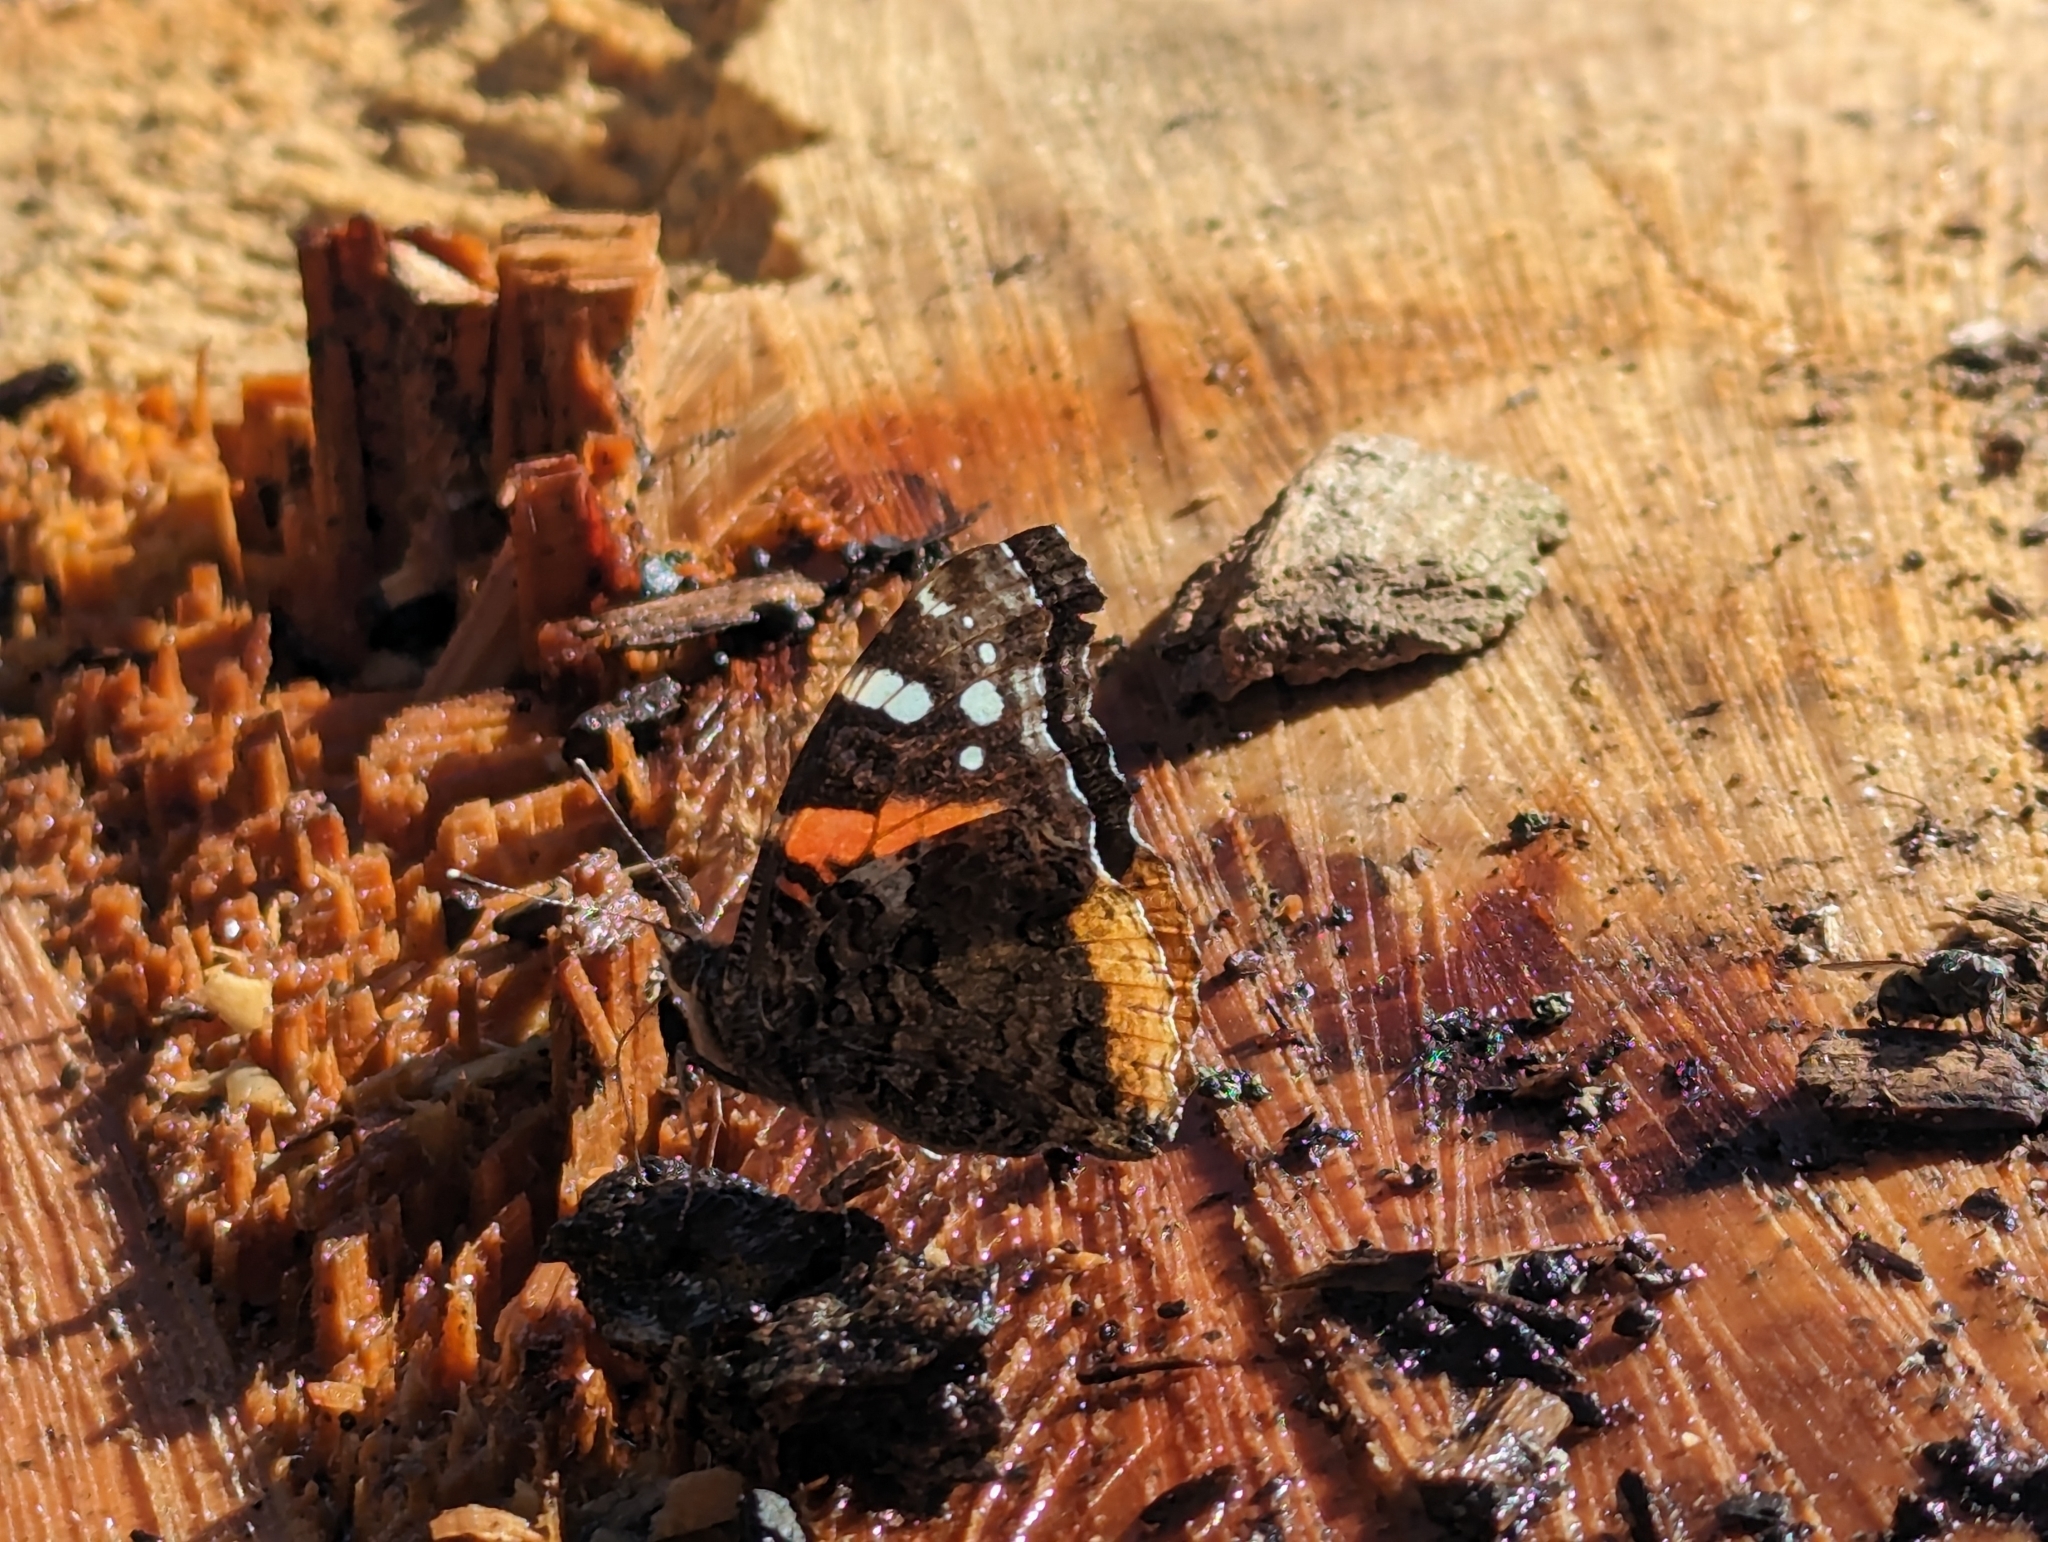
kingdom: Animalia
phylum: Arthropoda
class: Insecta
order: Lepidoptera
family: Nymphalidae
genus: Vanessa
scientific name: Vanessa atalanta
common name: Red admiral
